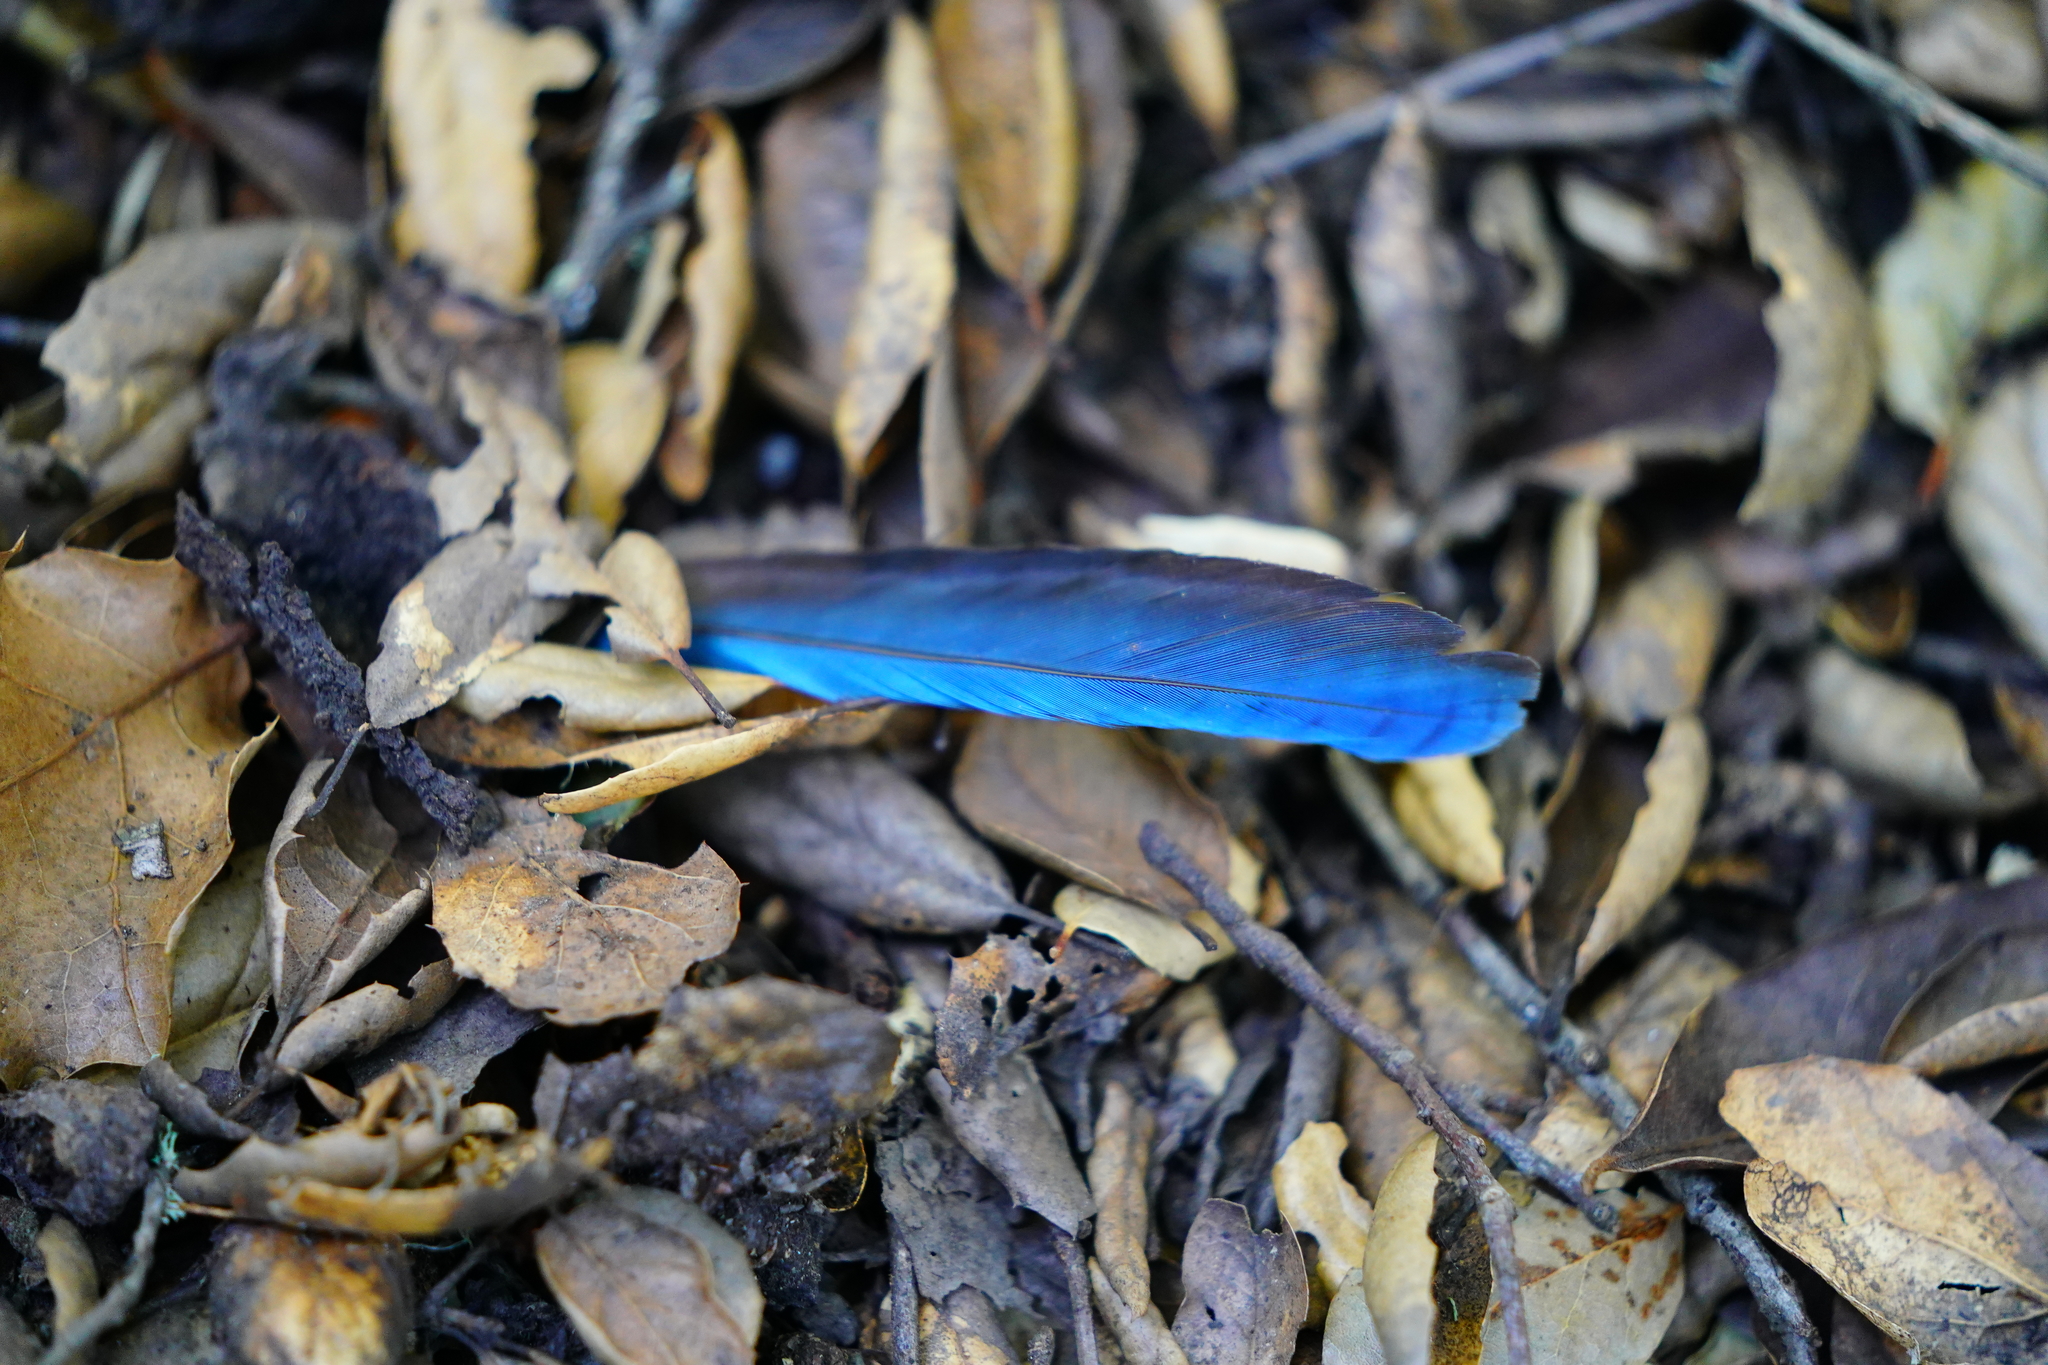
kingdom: Animalia
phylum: Chordata
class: Aves
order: Passeriformes
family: Corvidae
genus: Cyanocitta
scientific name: Cyanocitta stelleri
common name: Steller's jay
